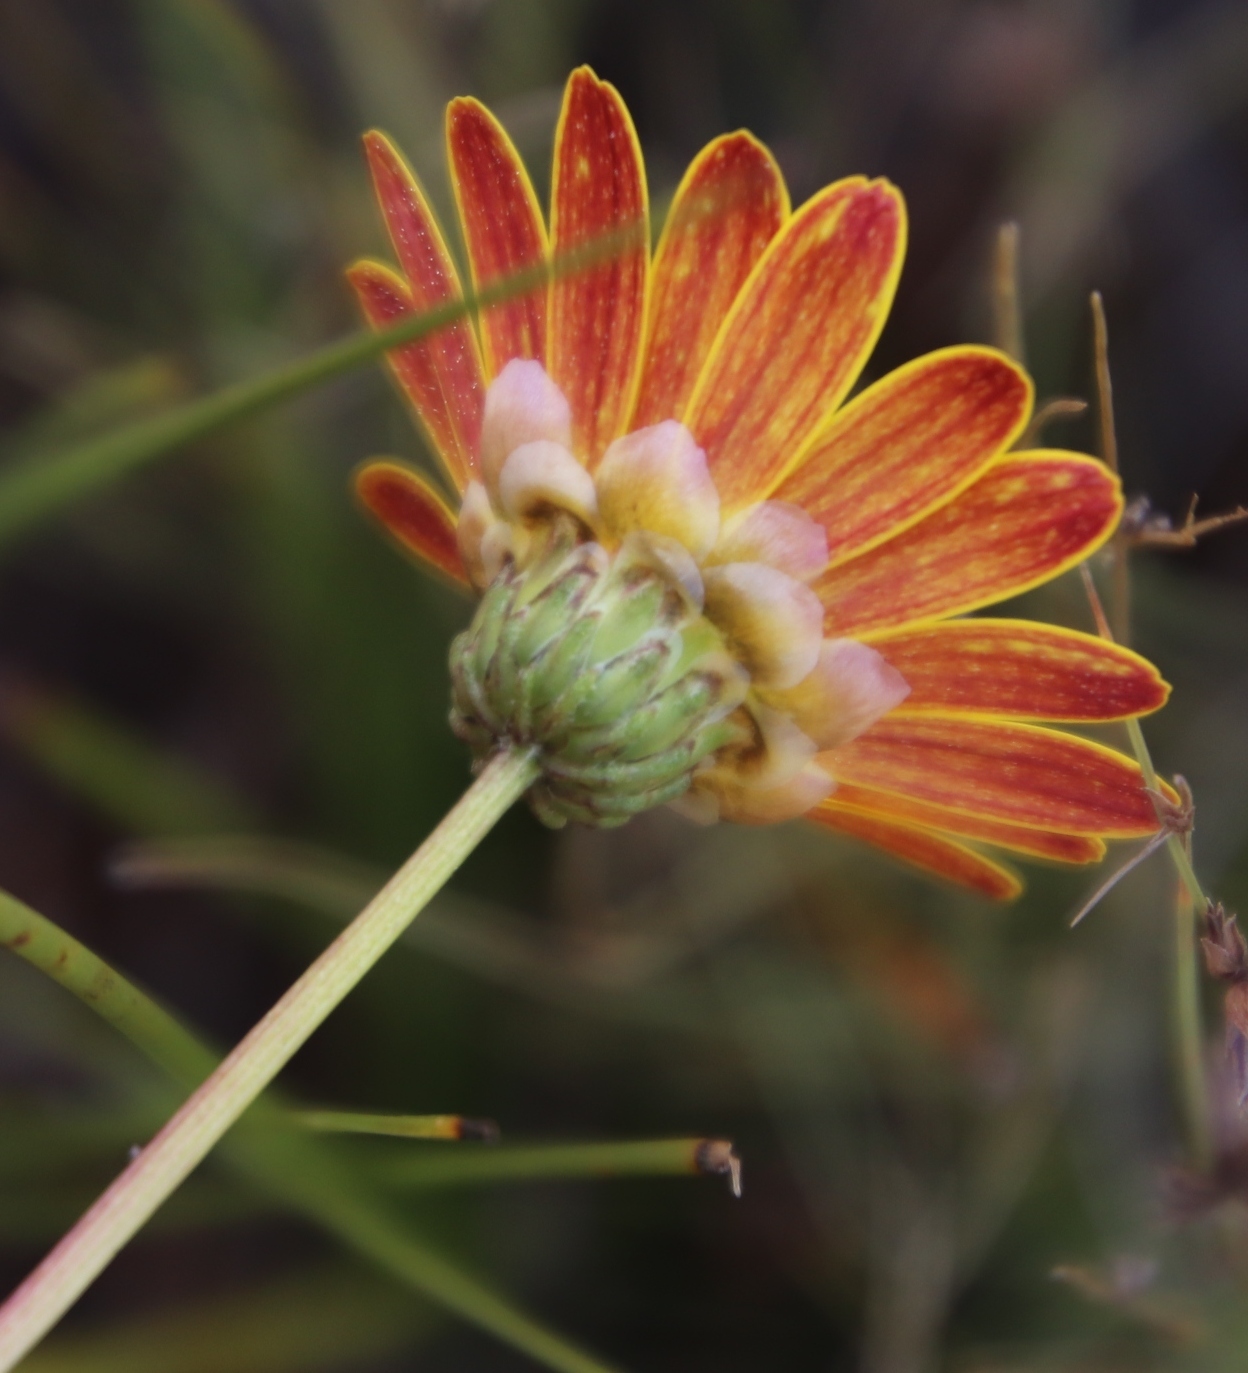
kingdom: Plantae
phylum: Tracheophyta
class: Magnoliopsida
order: Asterales
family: Asteraceae
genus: Ursinia
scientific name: Ursinia paleacea
